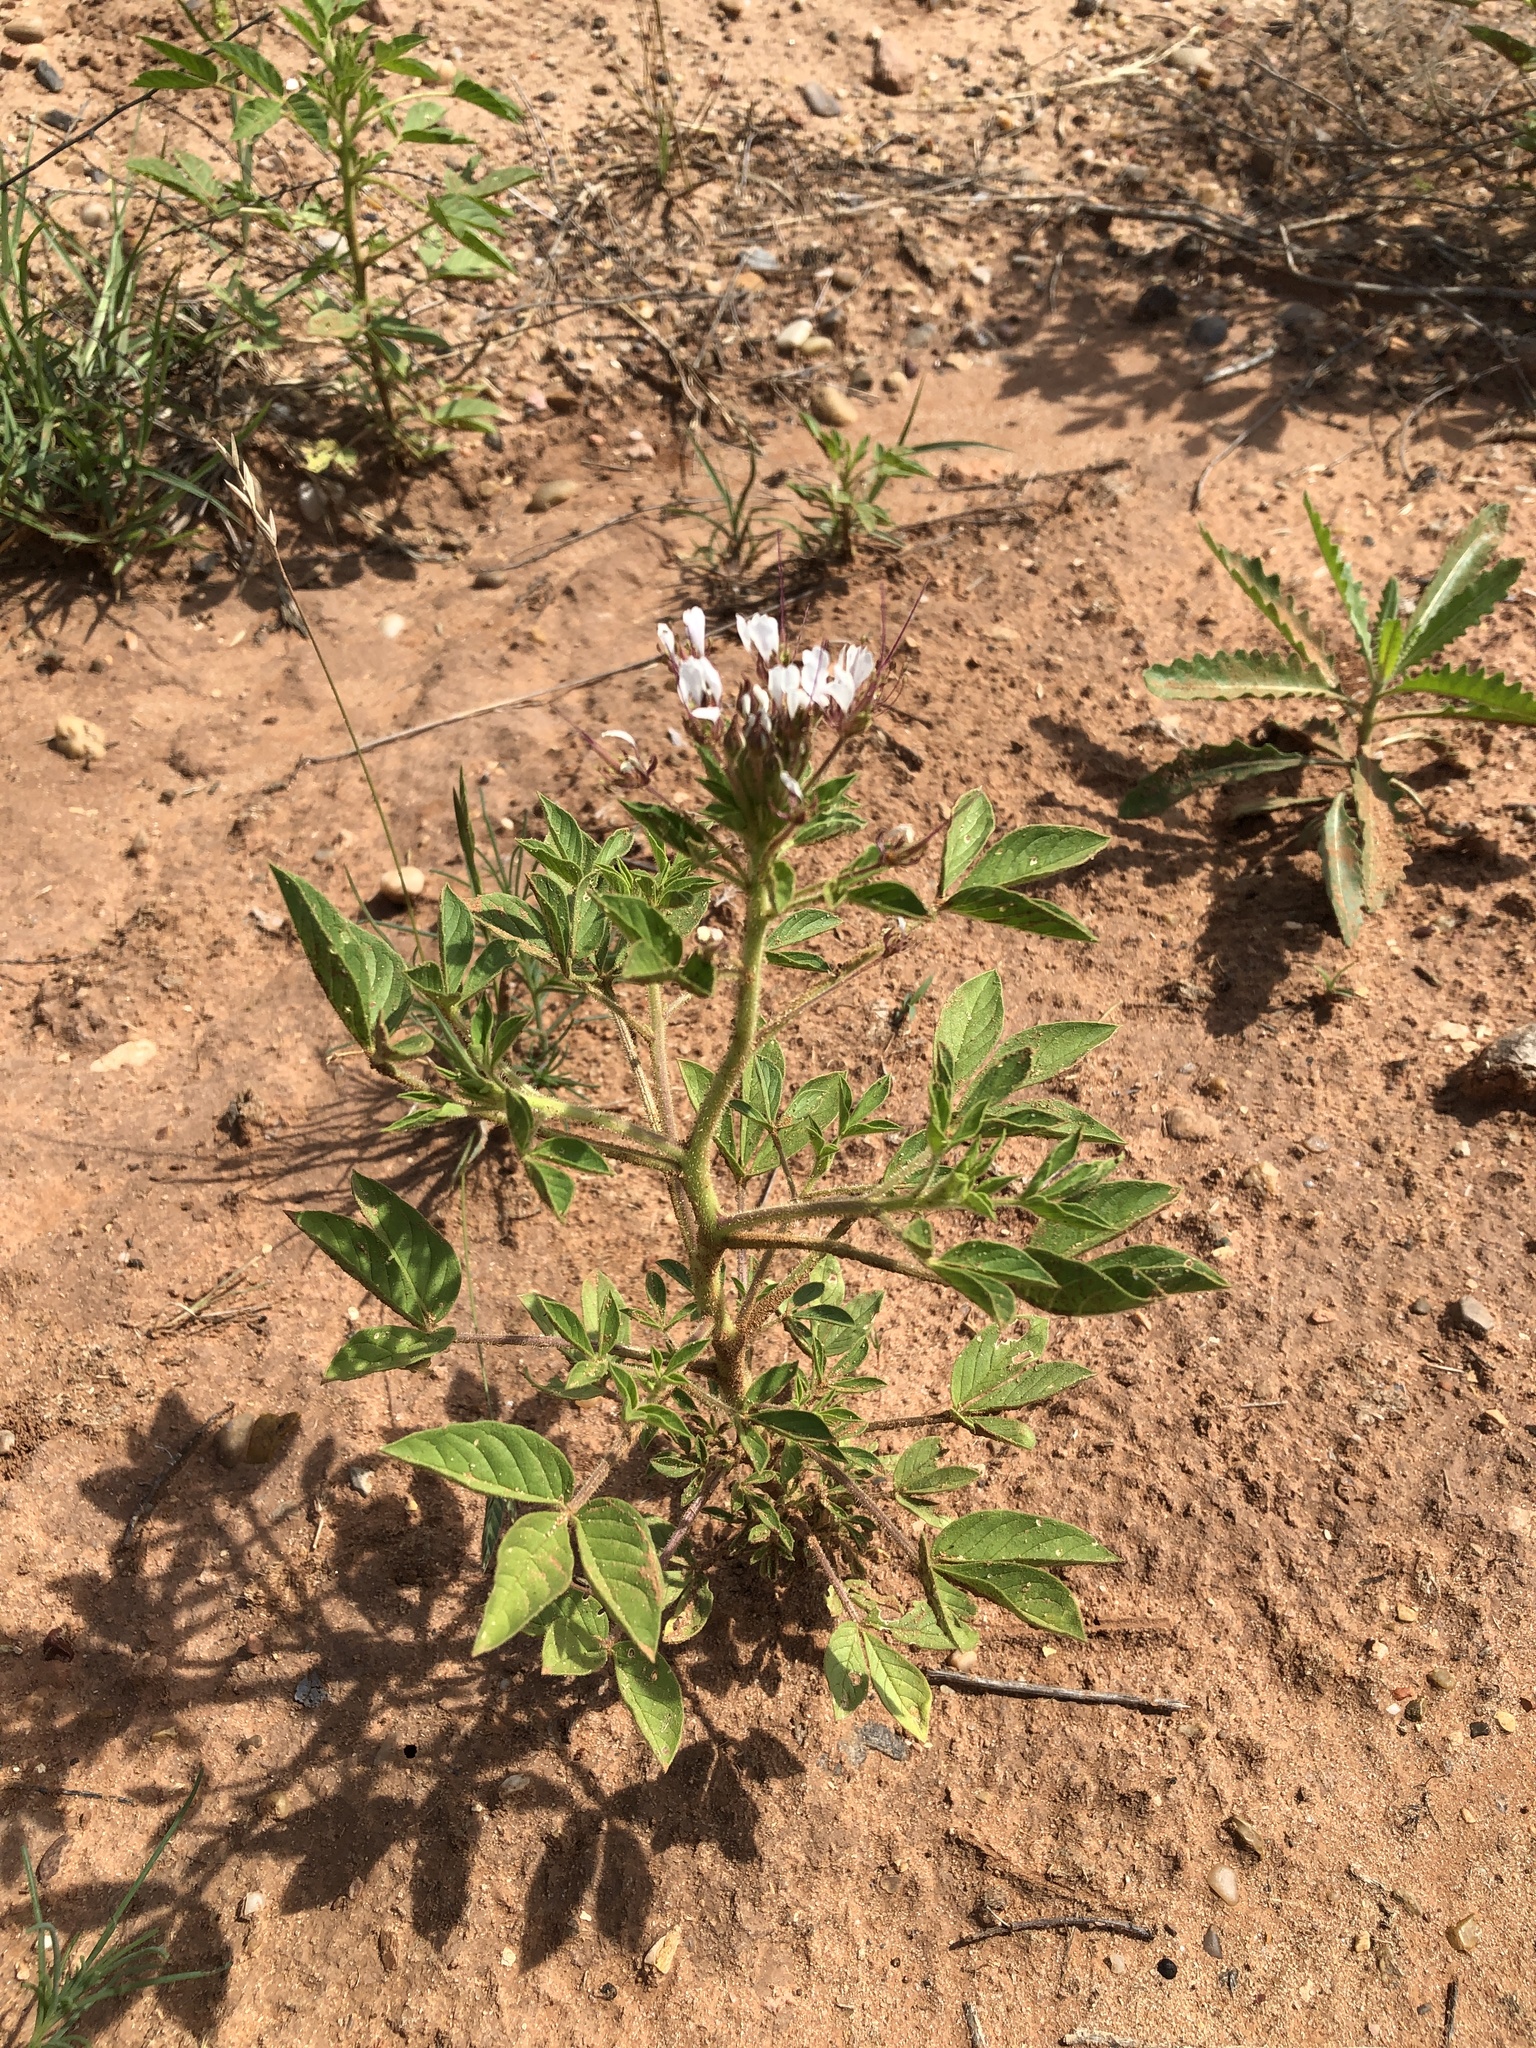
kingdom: Plantae
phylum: Tracheophyta
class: Magnoliopsida
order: Brassicales
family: Cleomaceae
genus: Polanisia
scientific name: Polanisia dodecandra
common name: Clammyweed
